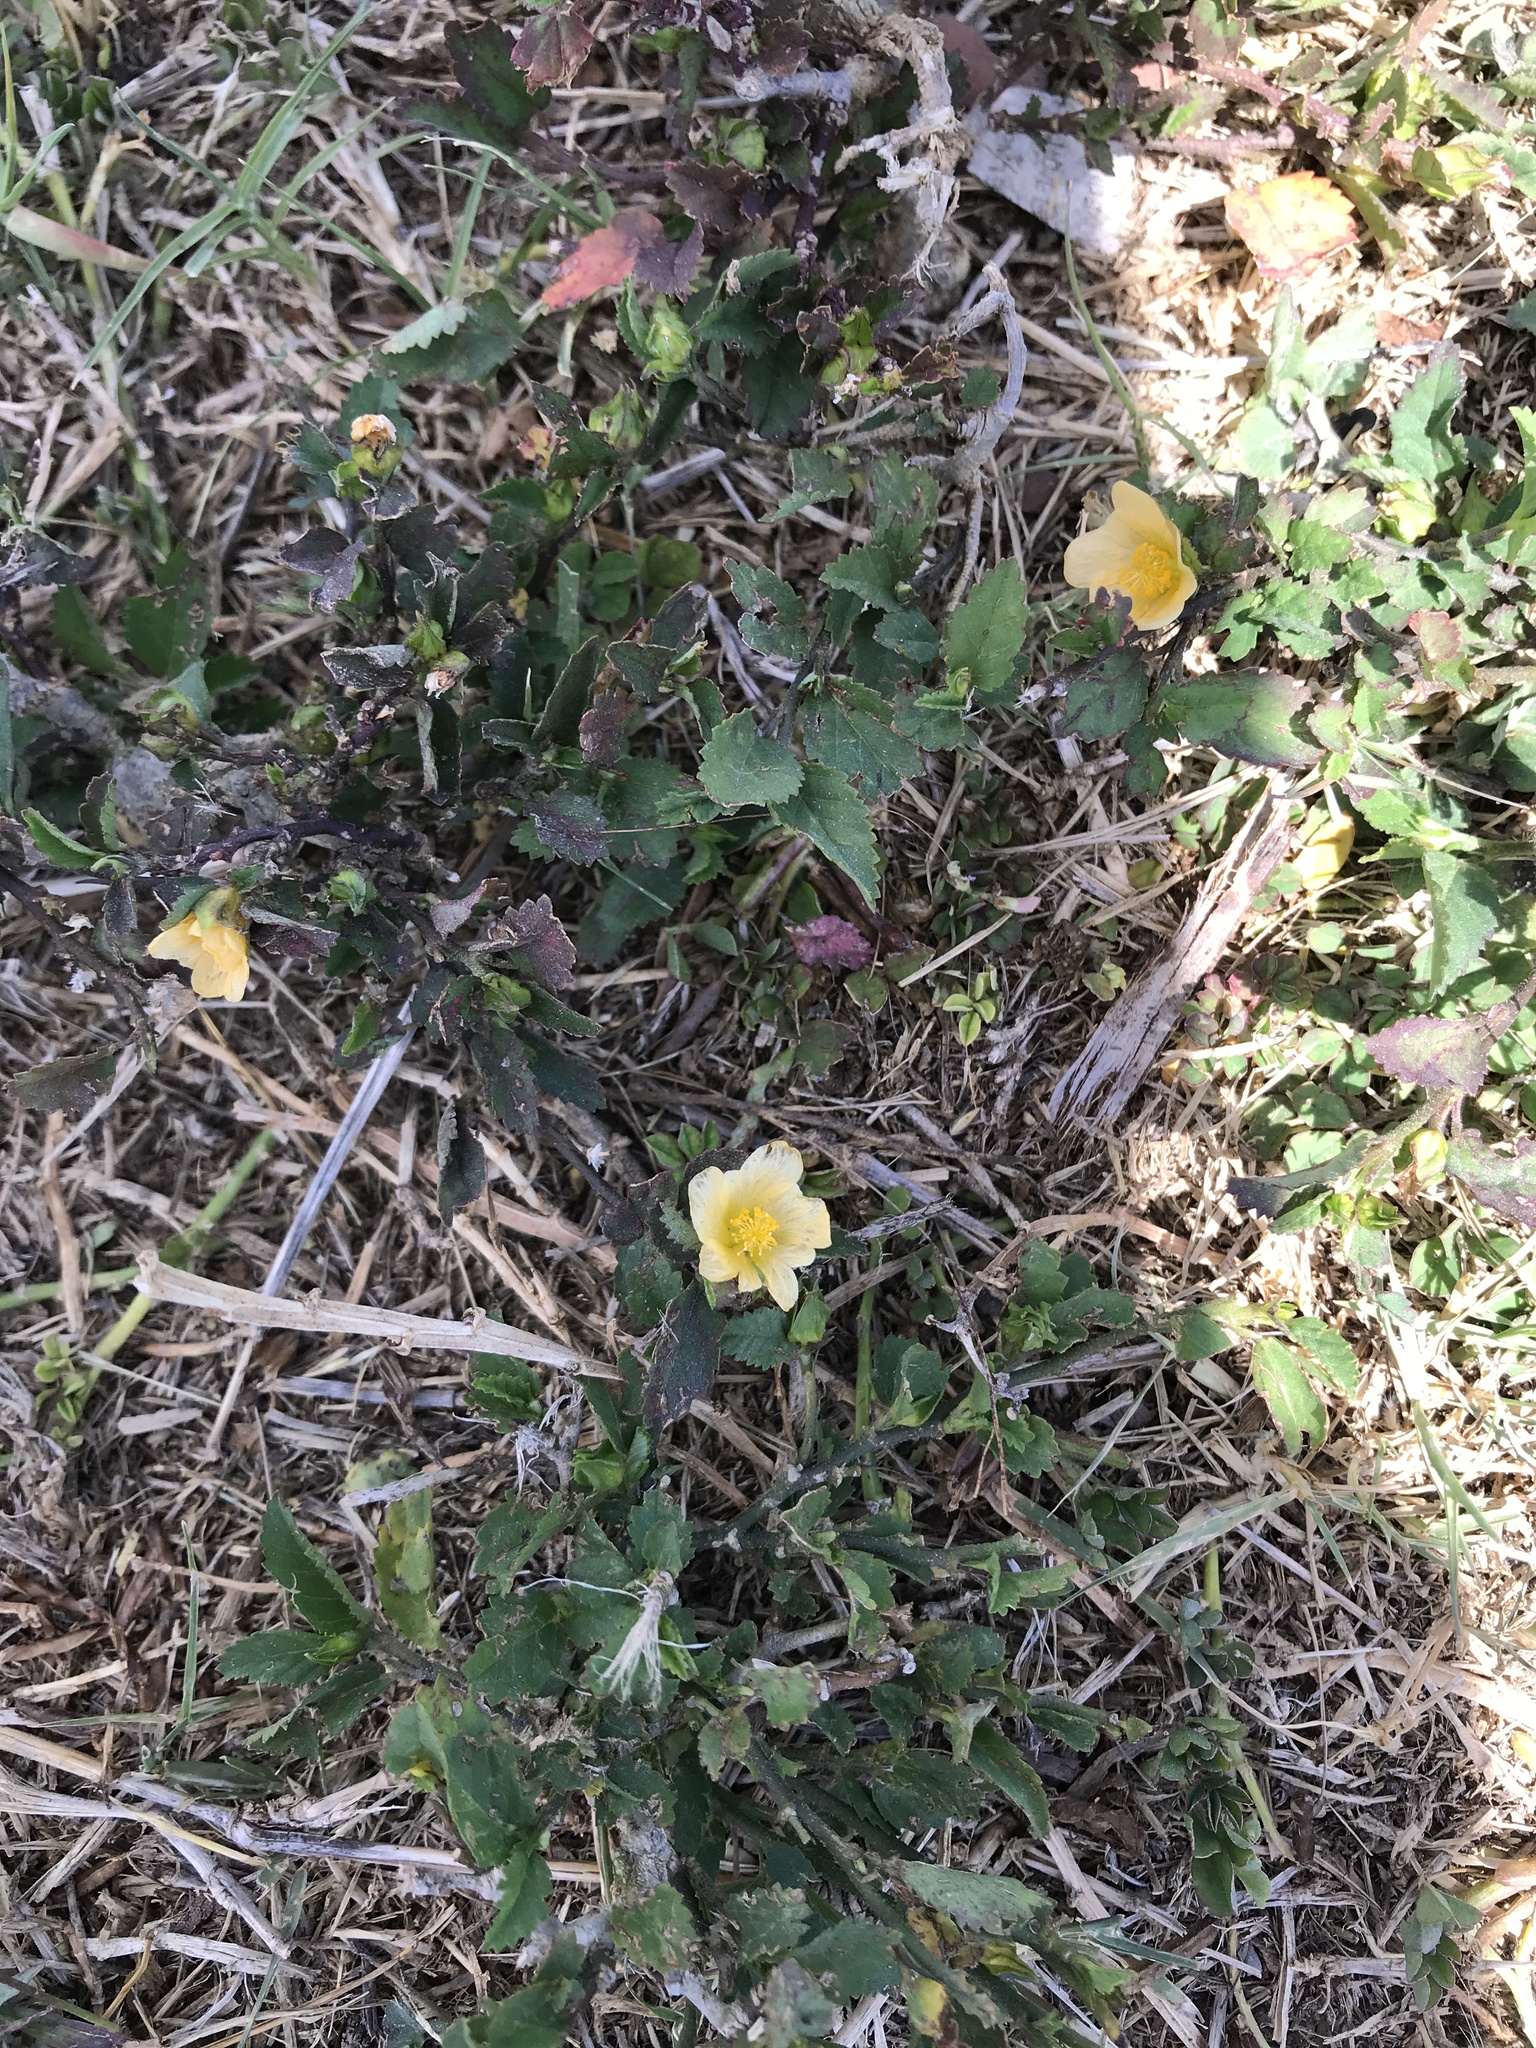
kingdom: Plantae
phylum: Tracheophyta
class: Magnoliopsida
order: Malvales
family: Malvaceae
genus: Sida
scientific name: Sida ulmifolia
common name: Broom weed
